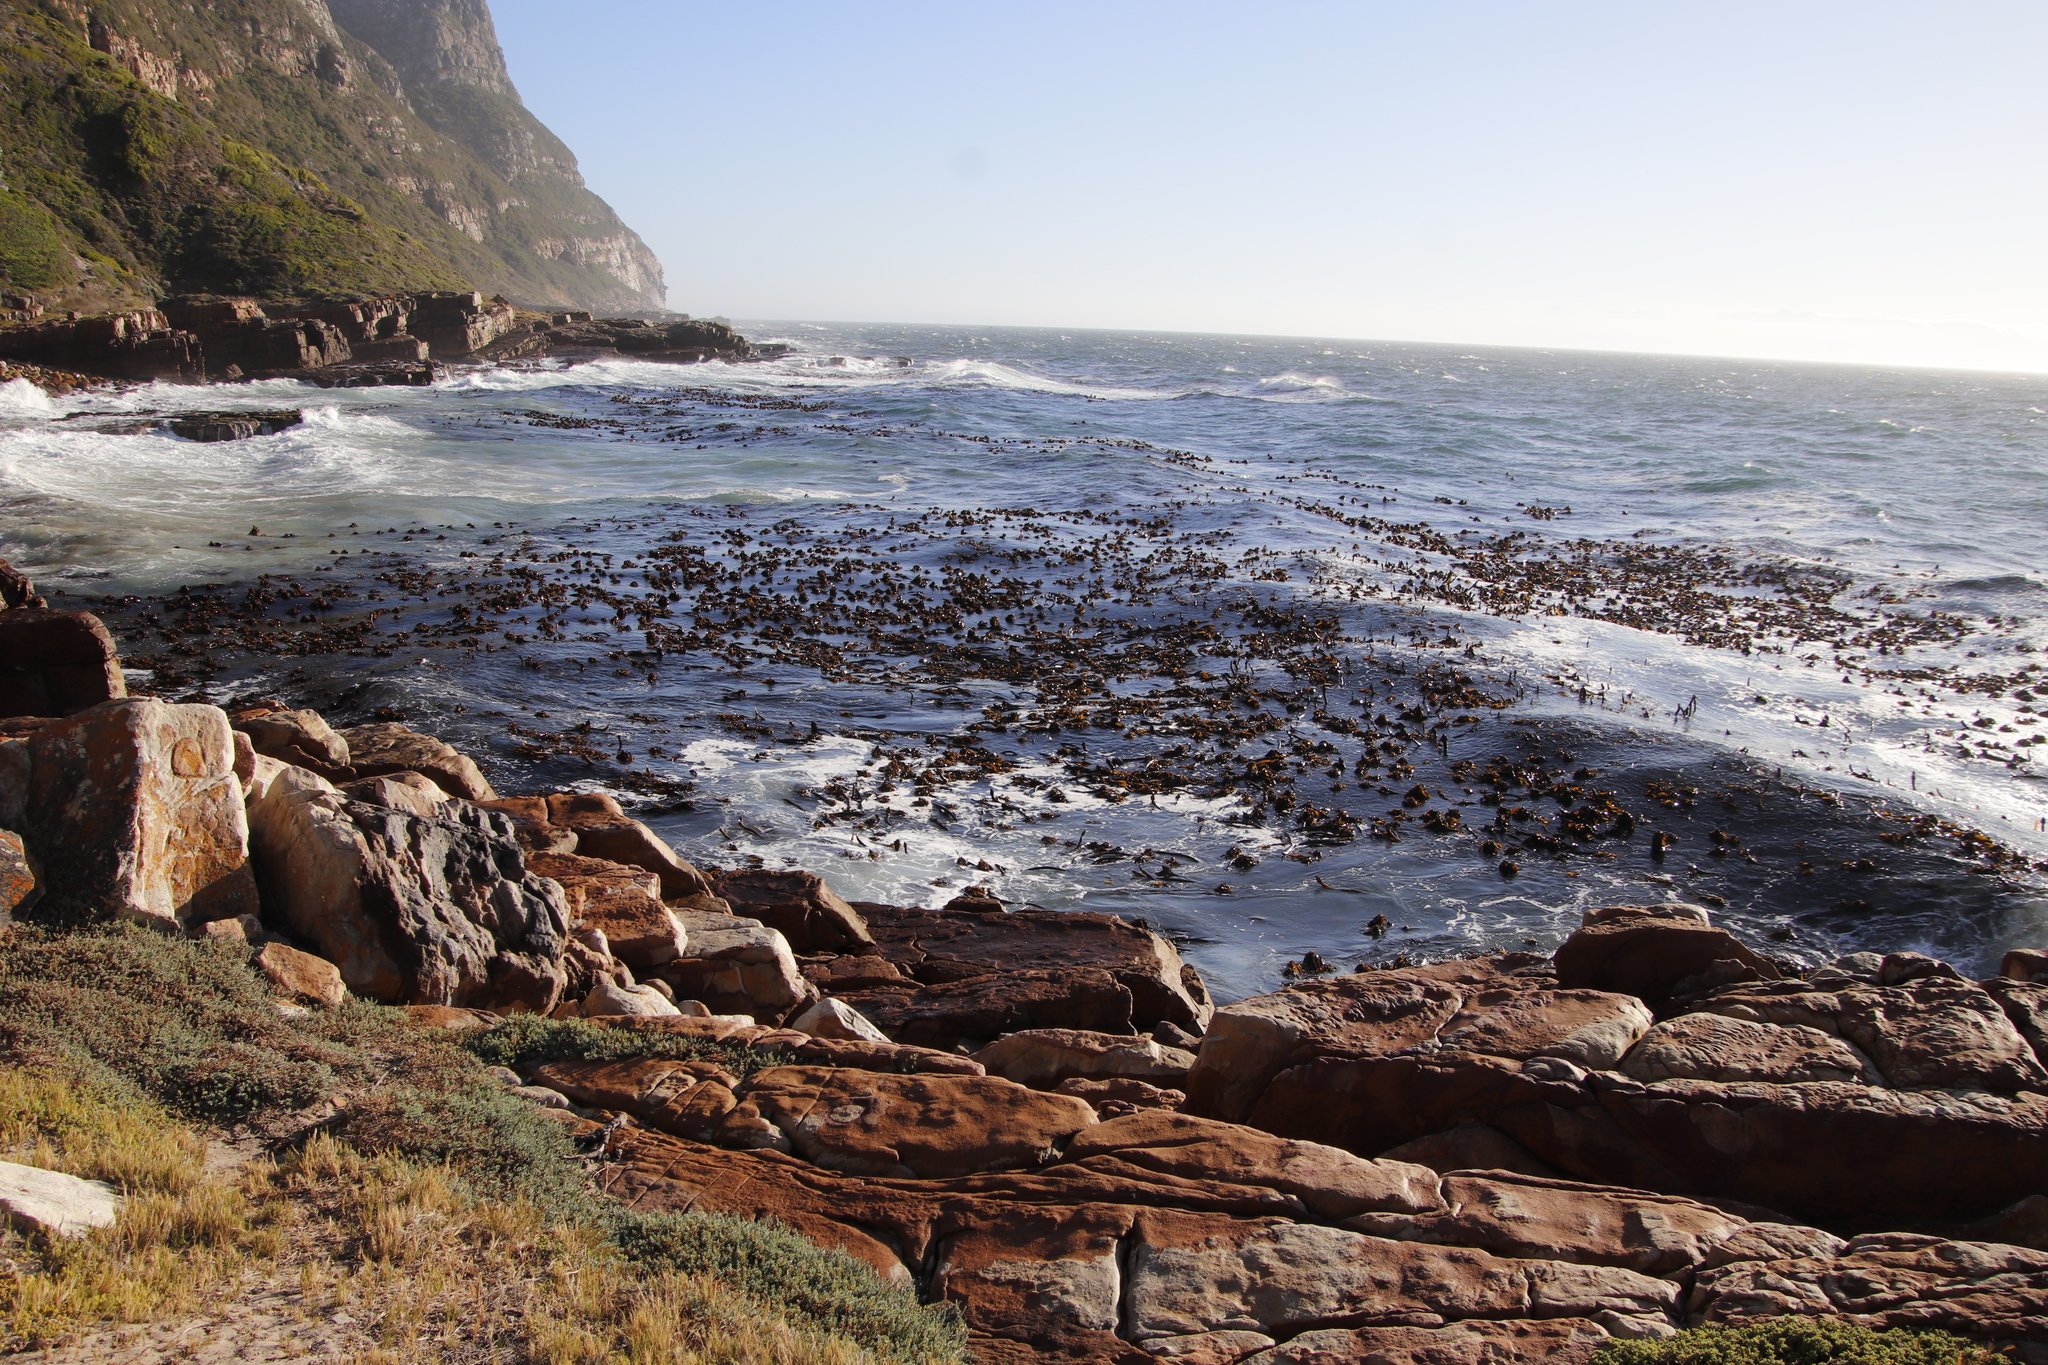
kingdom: Chromista
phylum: Ochrophyta
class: Phaeophyceae
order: Laminariales
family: Lessoniaceae
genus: Ecklonia
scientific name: Ecklonia
